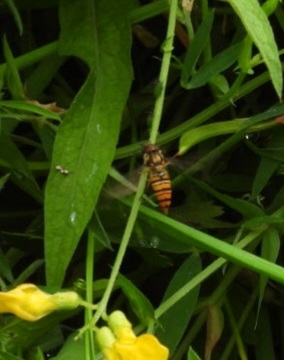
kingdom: Animalia
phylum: Arthropoda
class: Insecta
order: Diptera
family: Syrphidae
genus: Episyrphus
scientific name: Episyrphus balteatus
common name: Marmalade hoverfly
